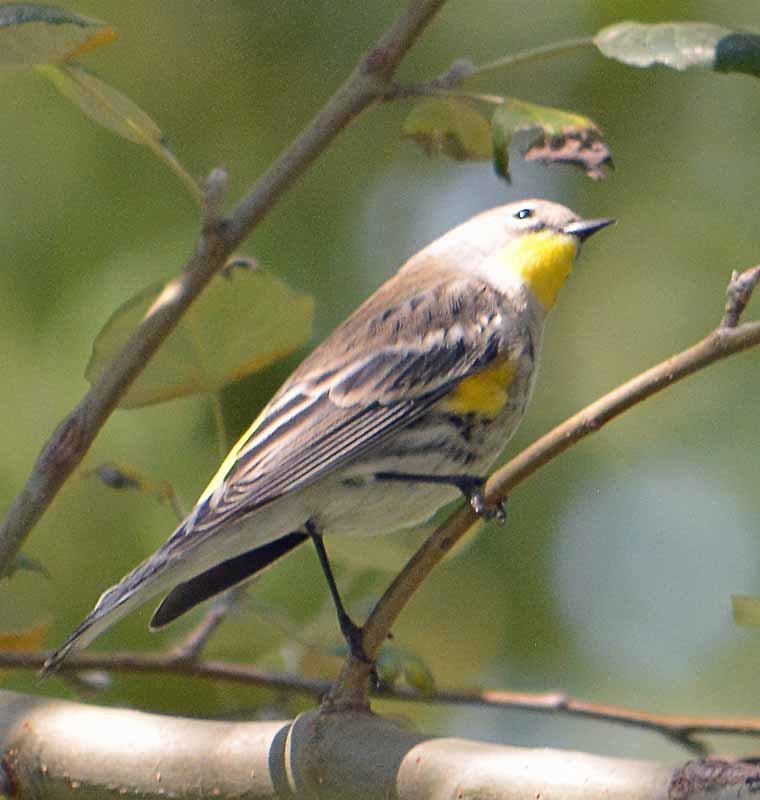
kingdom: Animalia
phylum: Chordata
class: Aves
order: Passeriformes
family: Parulidae
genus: Setophaga
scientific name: Setophaga coronata
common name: Myrtle warbler
